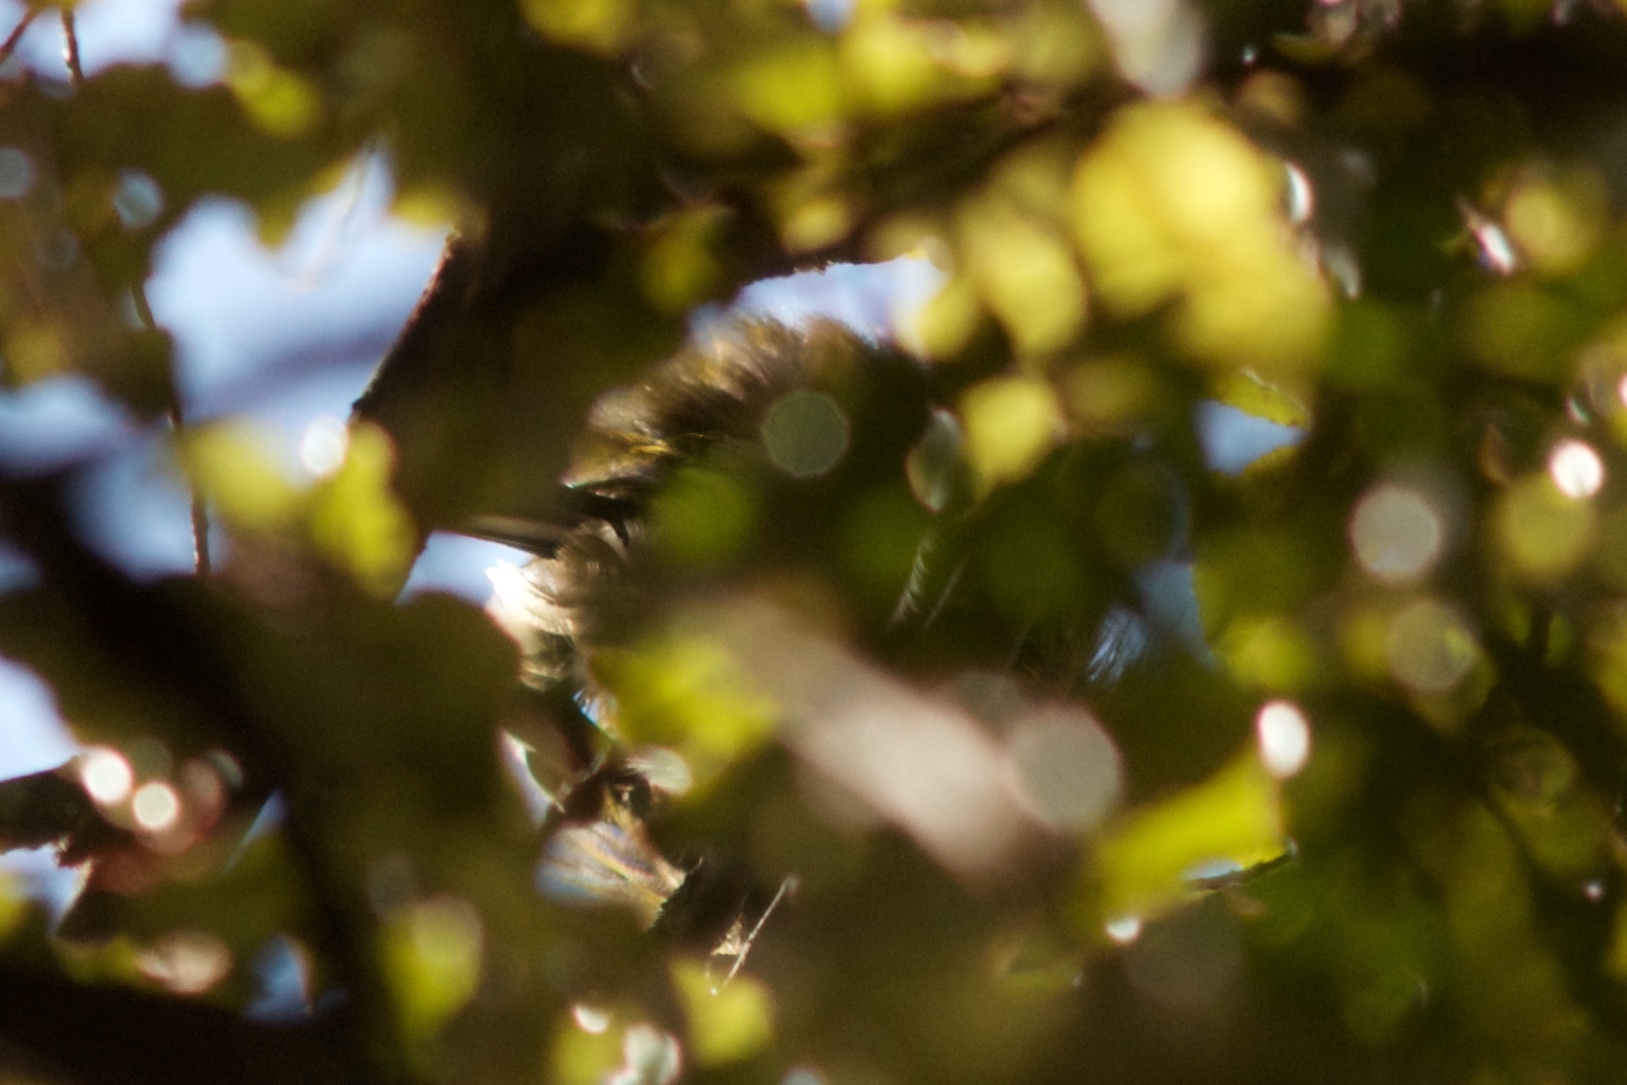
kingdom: Animalia
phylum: Chordata
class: Aves
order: Passeriformes
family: Meliphagidae
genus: Anthornis
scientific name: Anthornis melanura
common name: New zealand bellbird
